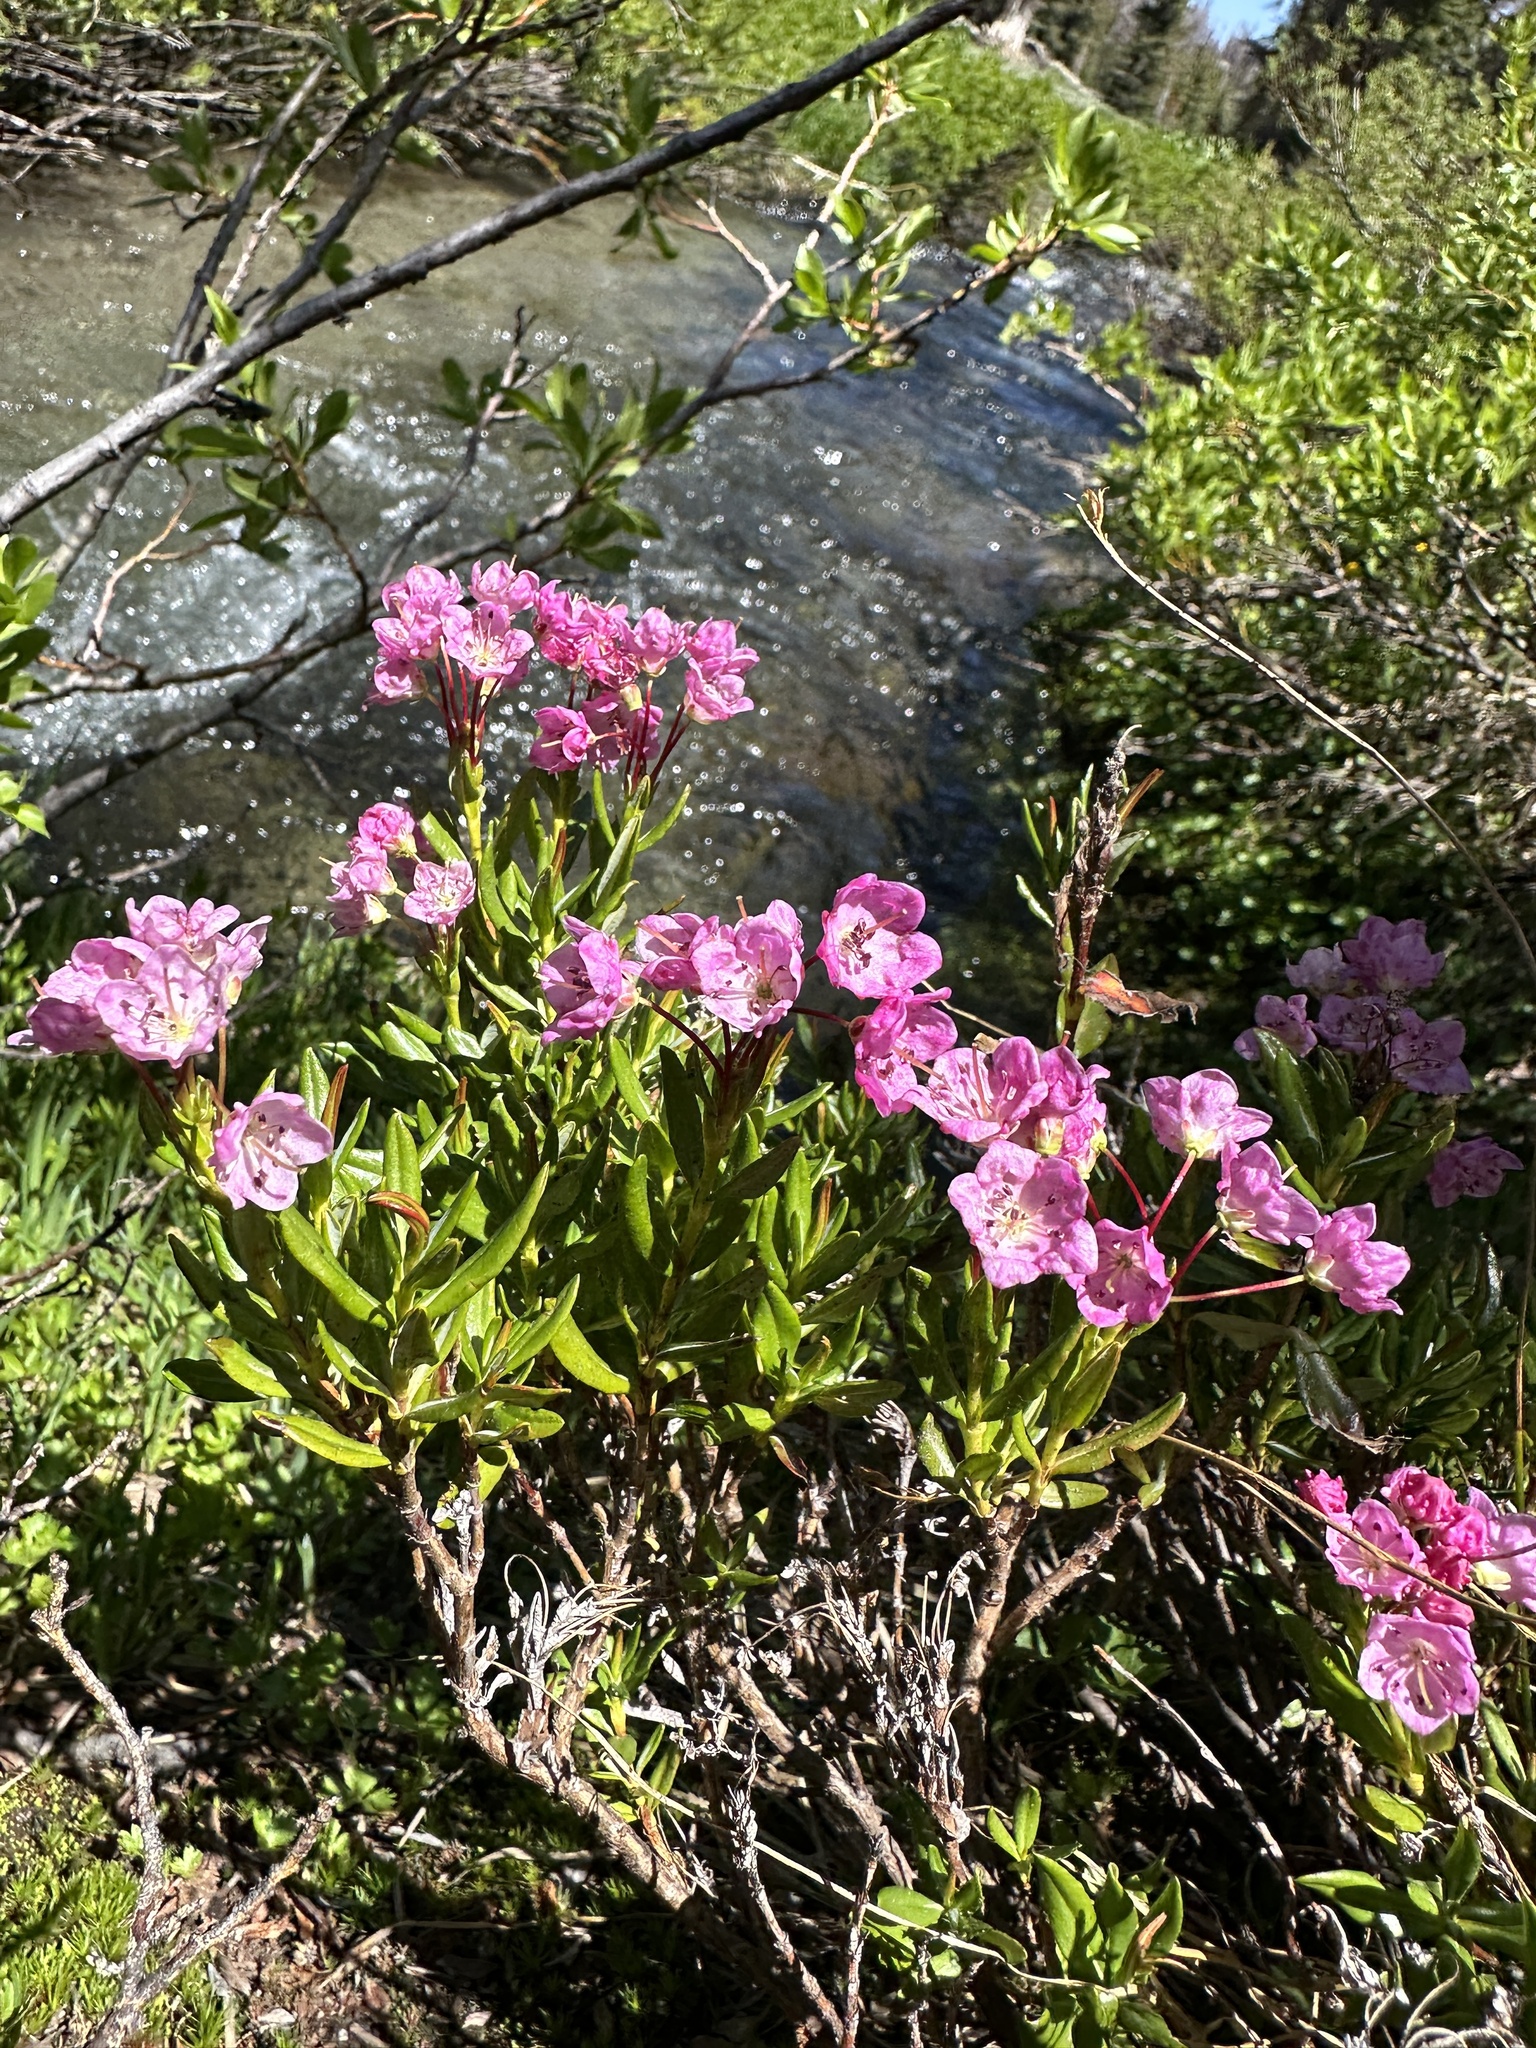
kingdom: Plantae
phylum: Tracheophyta
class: Magnoliopsida
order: Ericales
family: Ericaceae
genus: Kalmia
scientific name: Kalmia microphylla
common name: Alpine bog laurel
